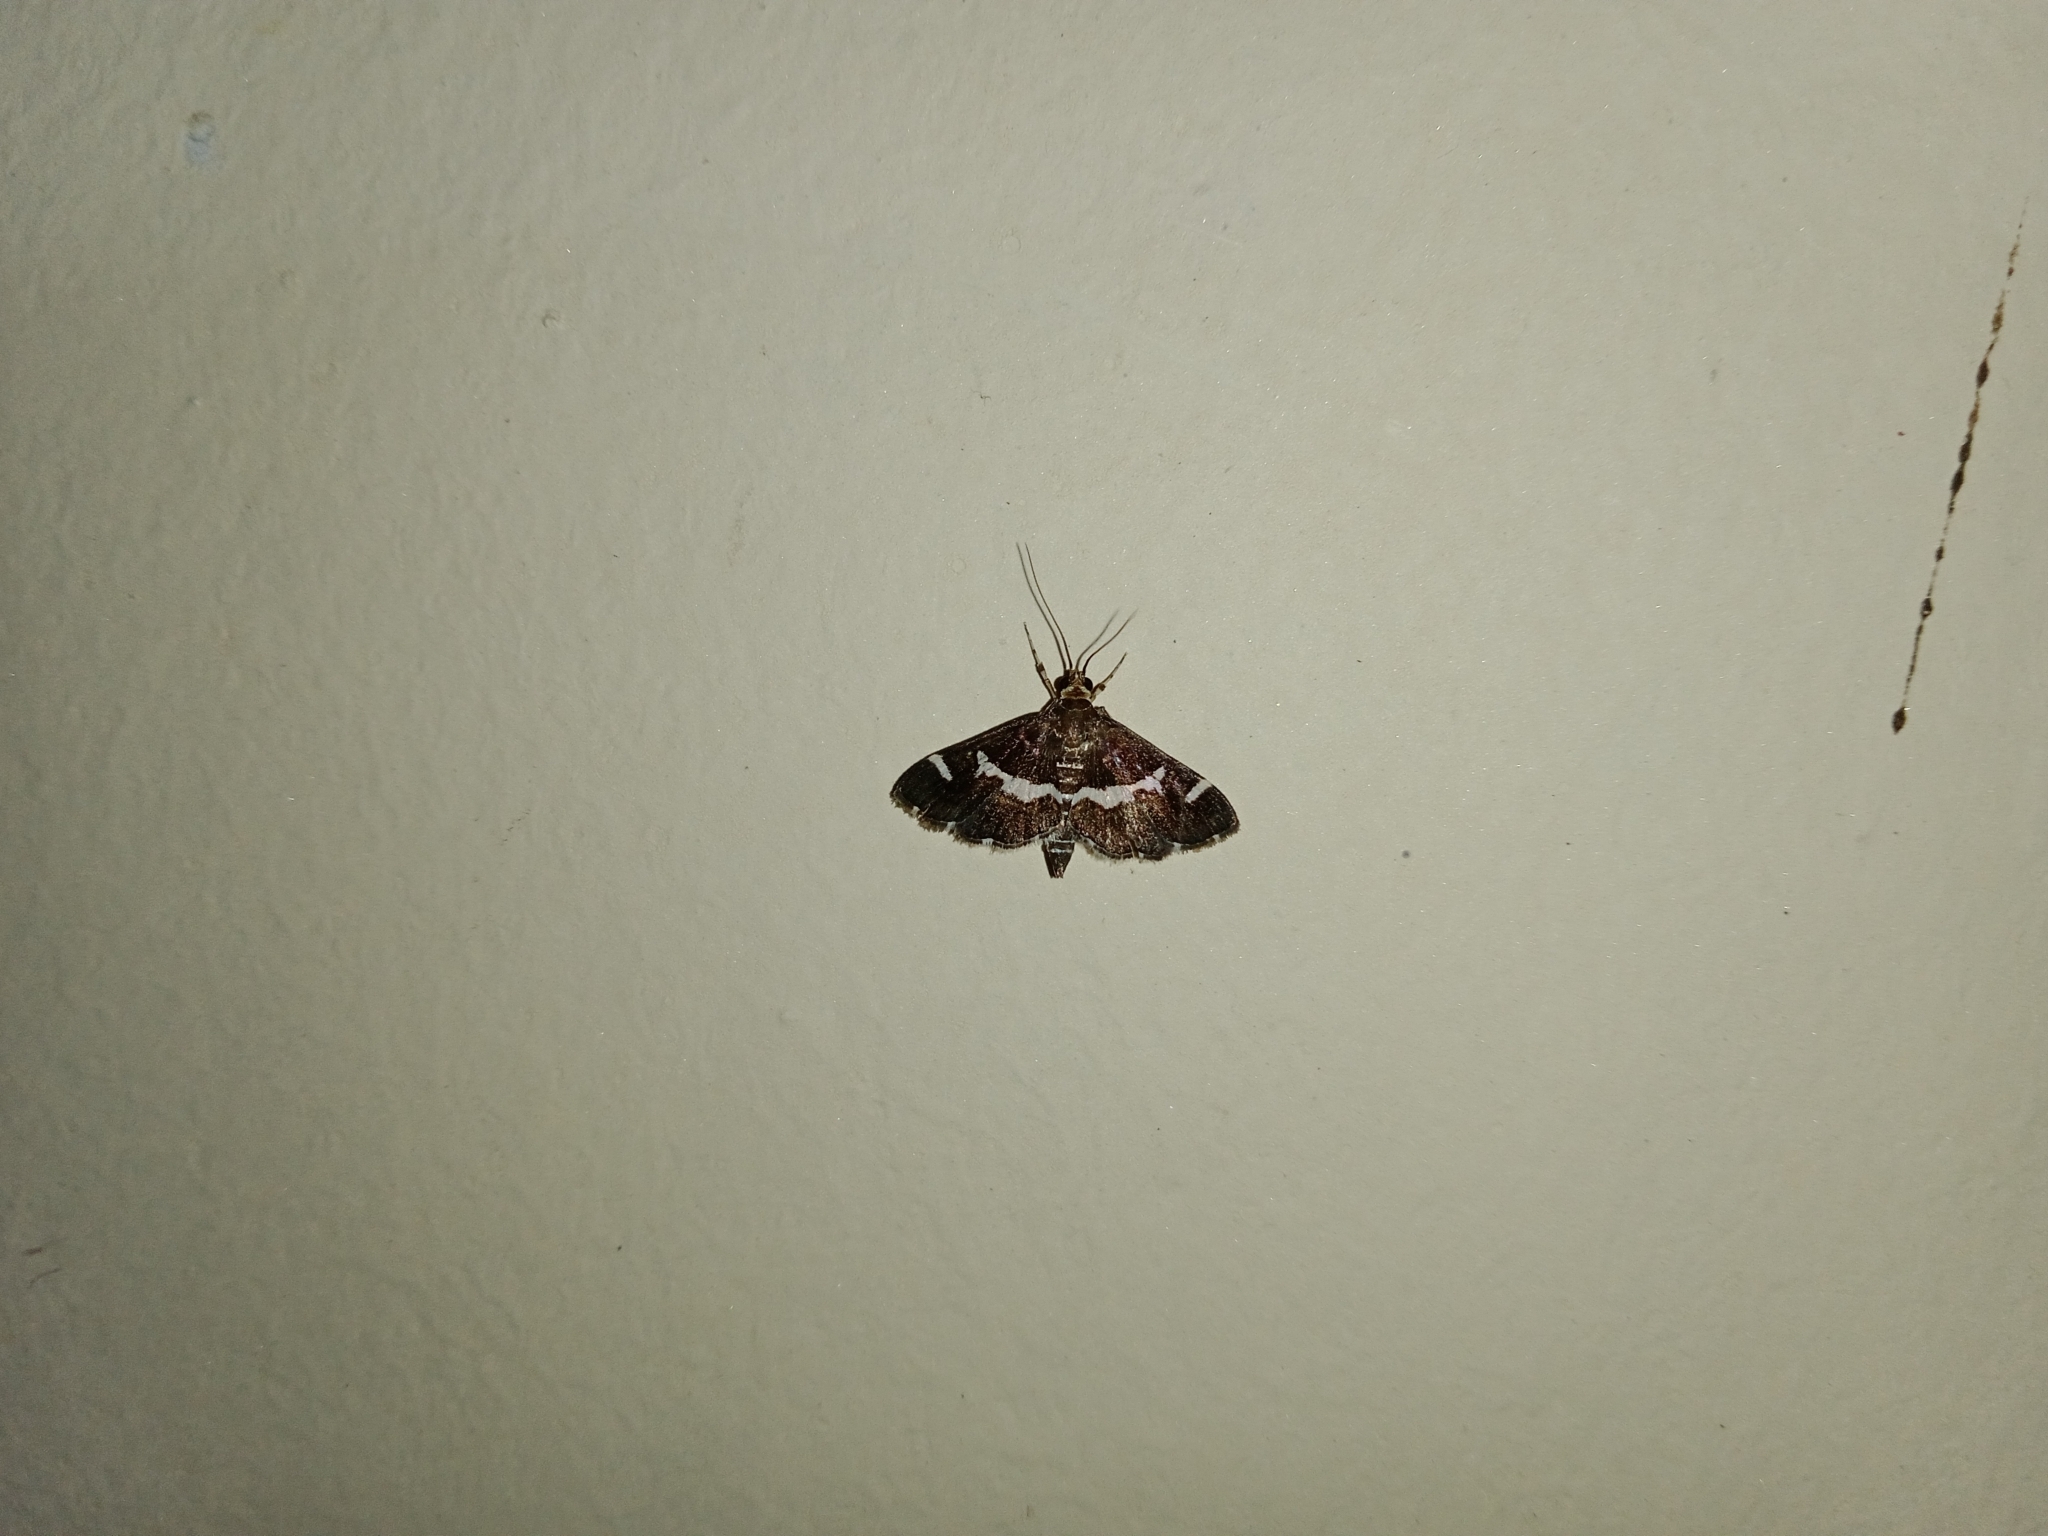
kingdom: Animalia
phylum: Arthropoda
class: Insecta
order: Lepidoptera
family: Crambidae
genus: Spoladea
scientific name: Spoladea recurvalis
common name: Beet webworm moth
